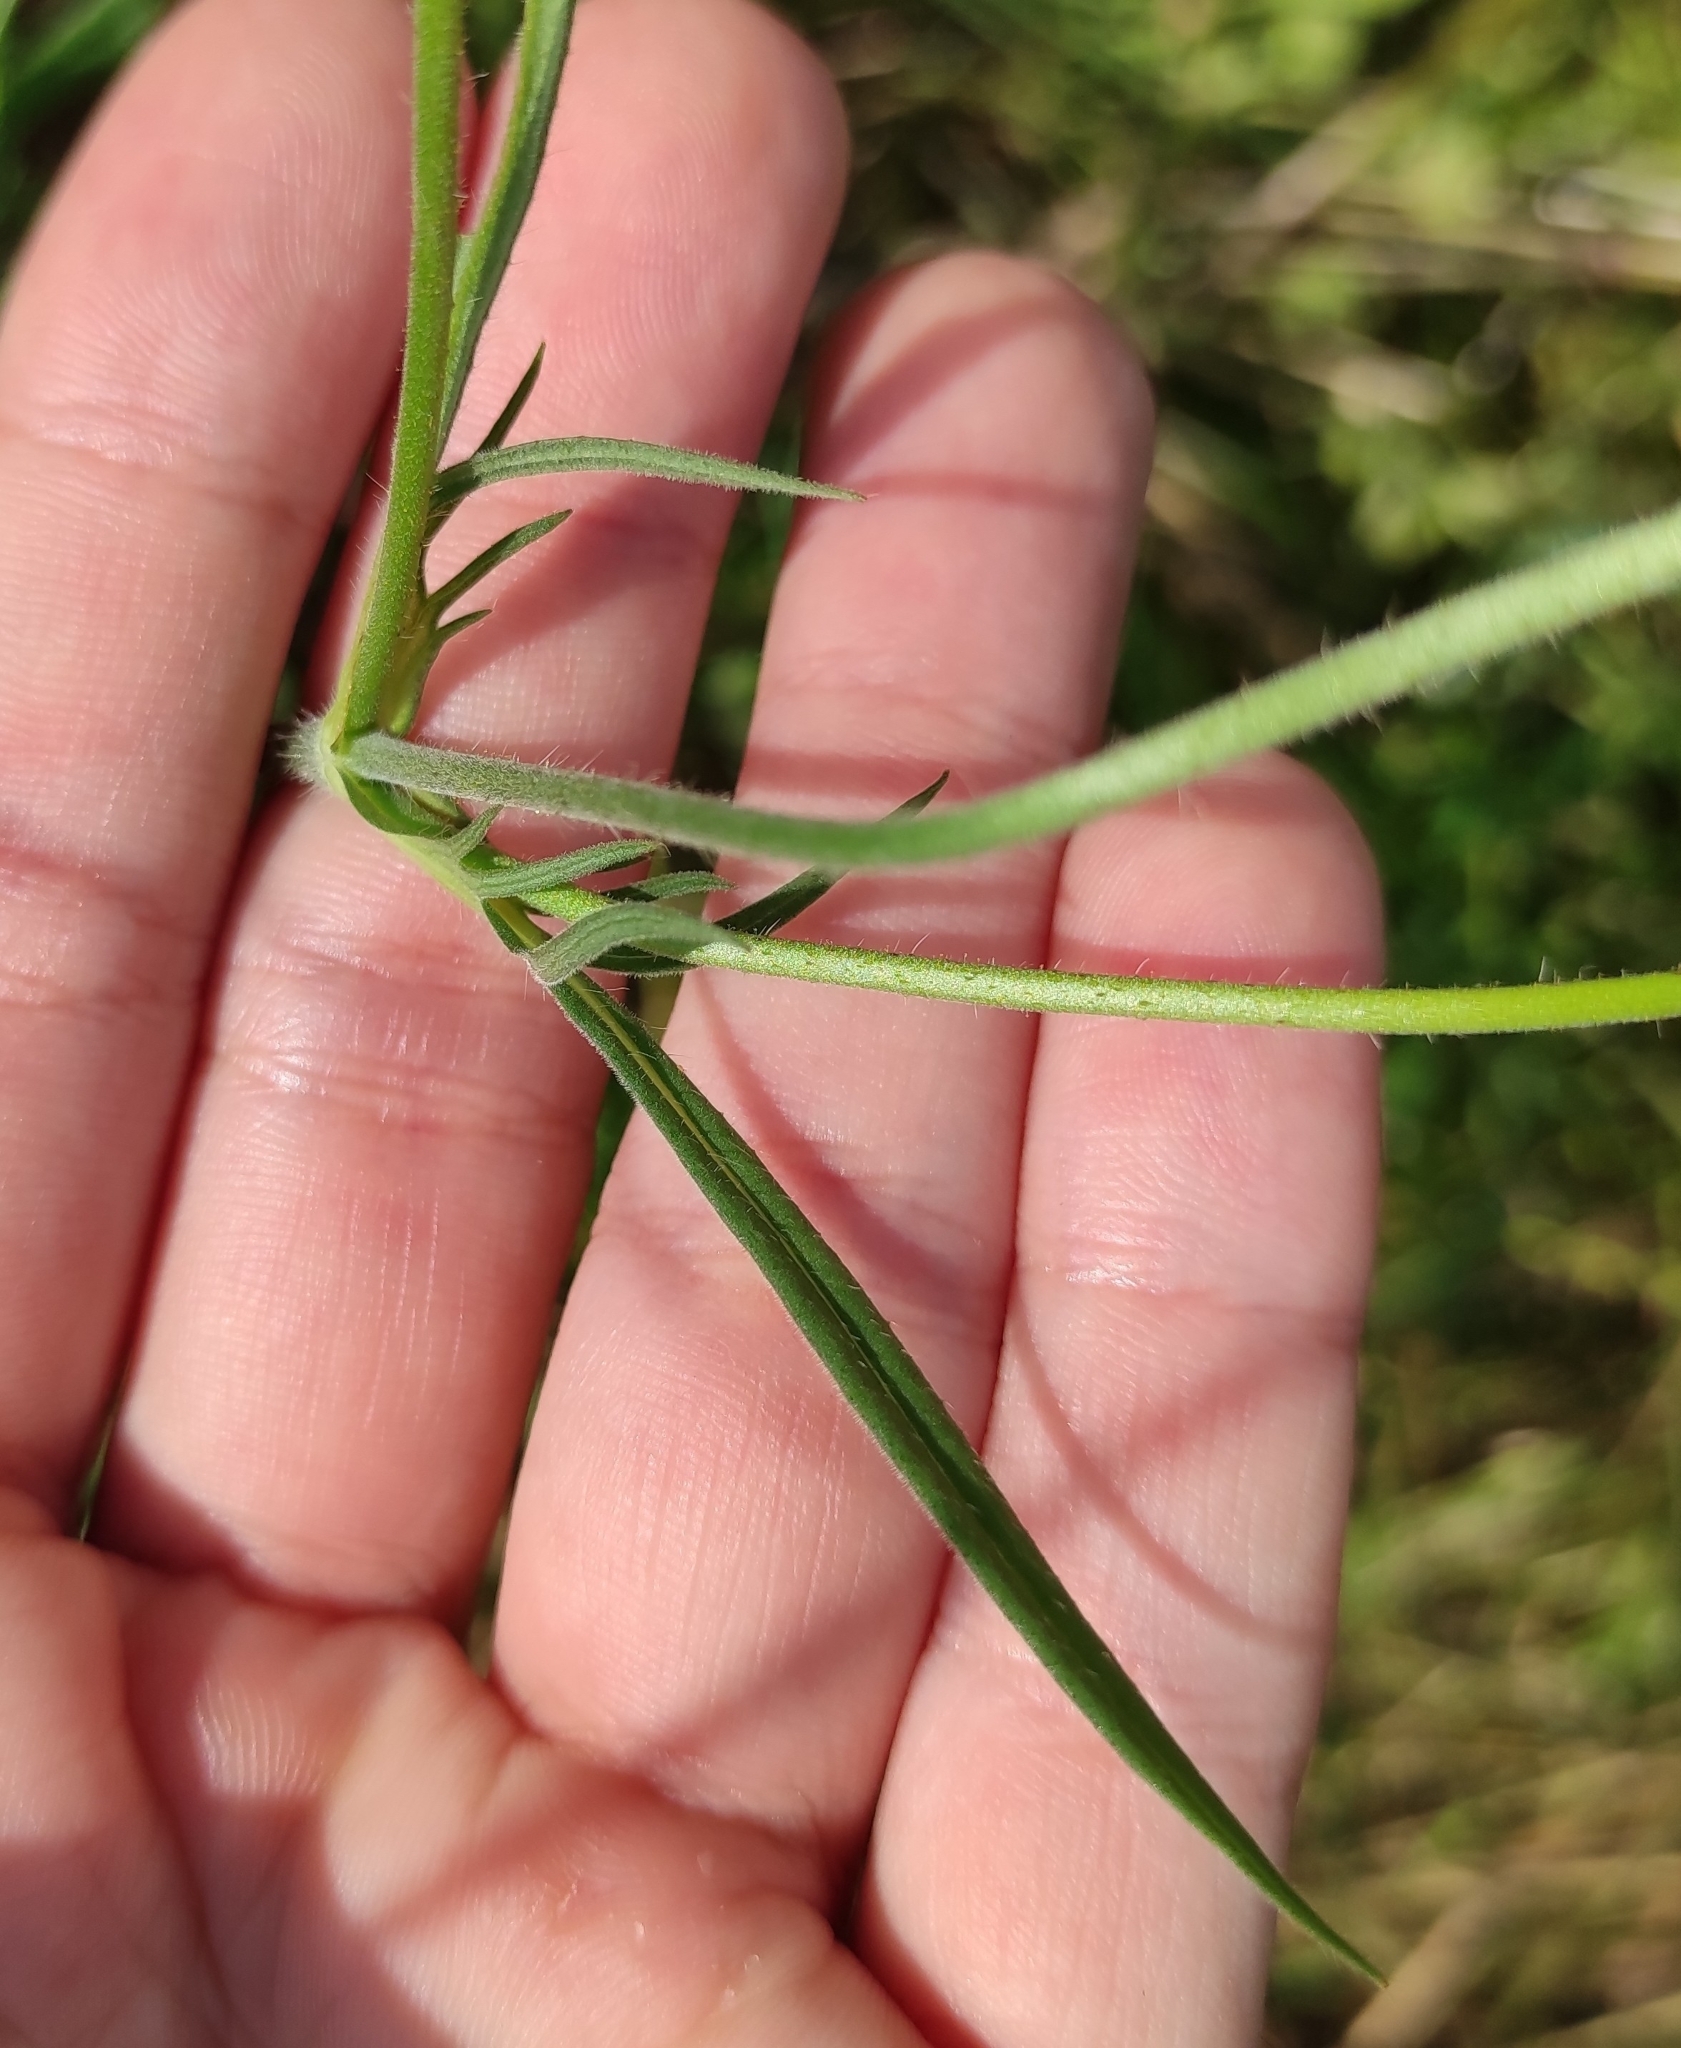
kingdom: Plantae
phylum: Tracheophyta
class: Magnoliopsida
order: Dipsacales
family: Caprifoliaceae
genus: Knautia
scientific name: Knautia arvensis
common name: Field scabiosa
